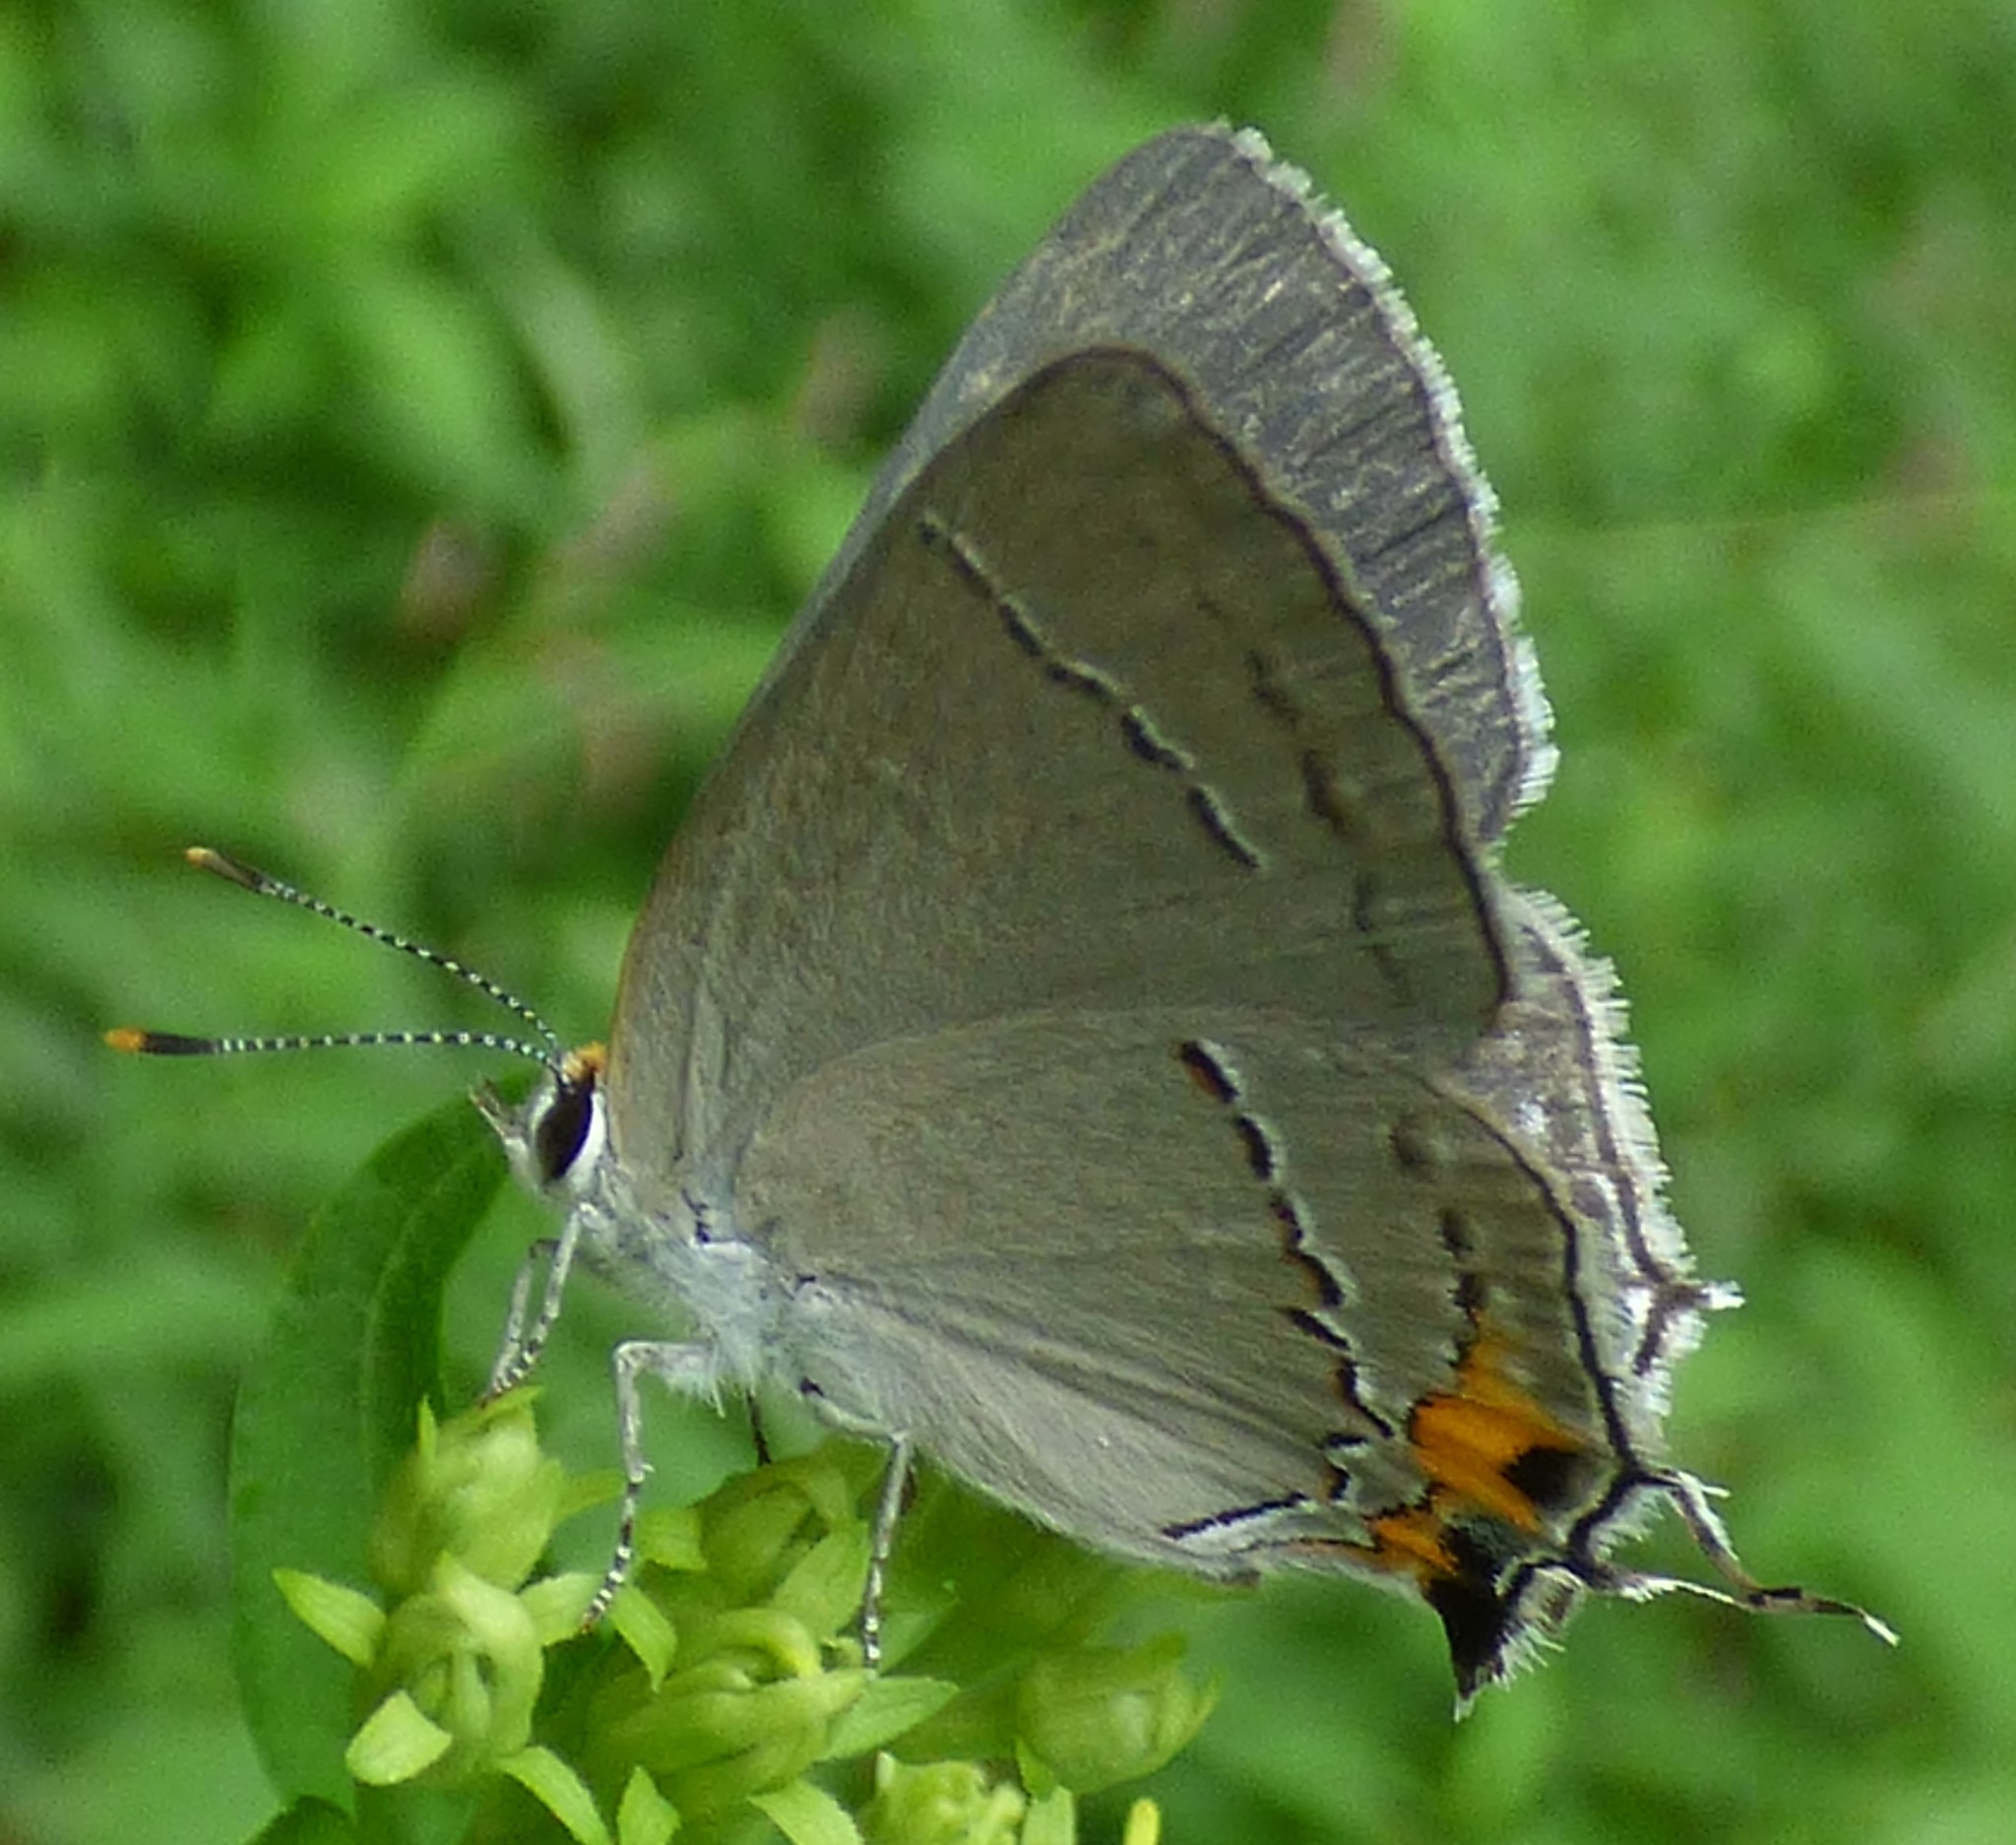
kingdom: Animalia
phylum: Arthropoda
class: Insecta
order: Lepidoptera
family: Lycaenidae
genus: Strymon
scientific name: Strymon melinus
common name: Gray hairstreak
